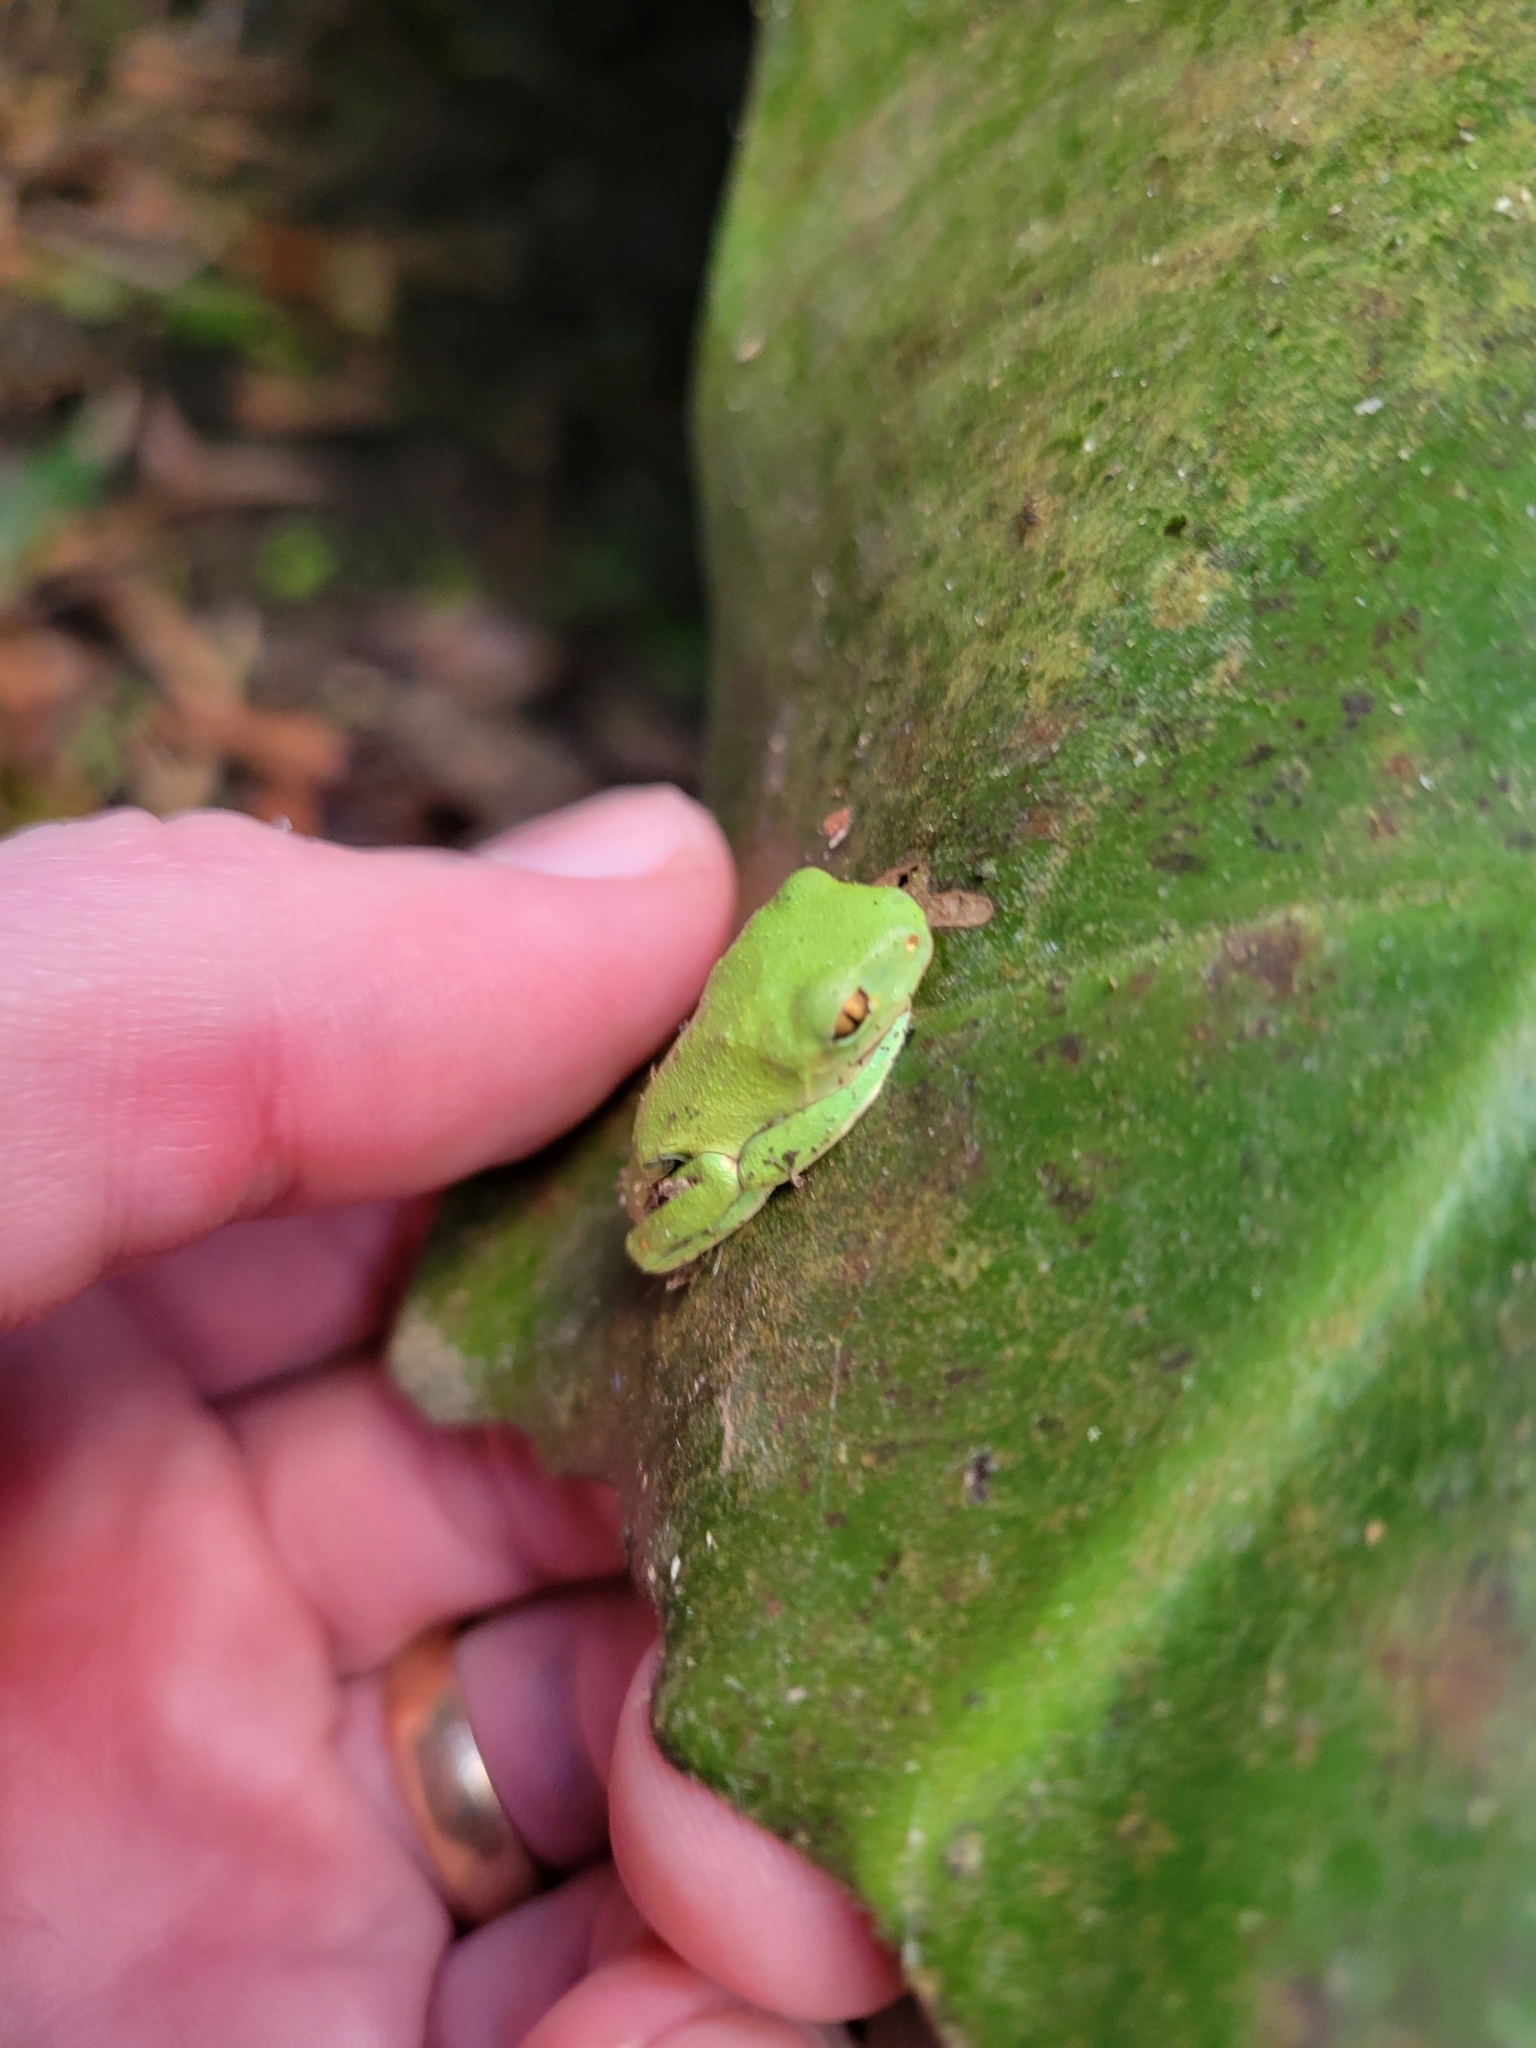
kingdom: Animalia
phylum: Chordata
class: Amphibia
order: Anura
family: Phyllomedusidae
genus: Agalychnis
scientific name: Agalychnis annae
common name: Blue-sided treefrog
